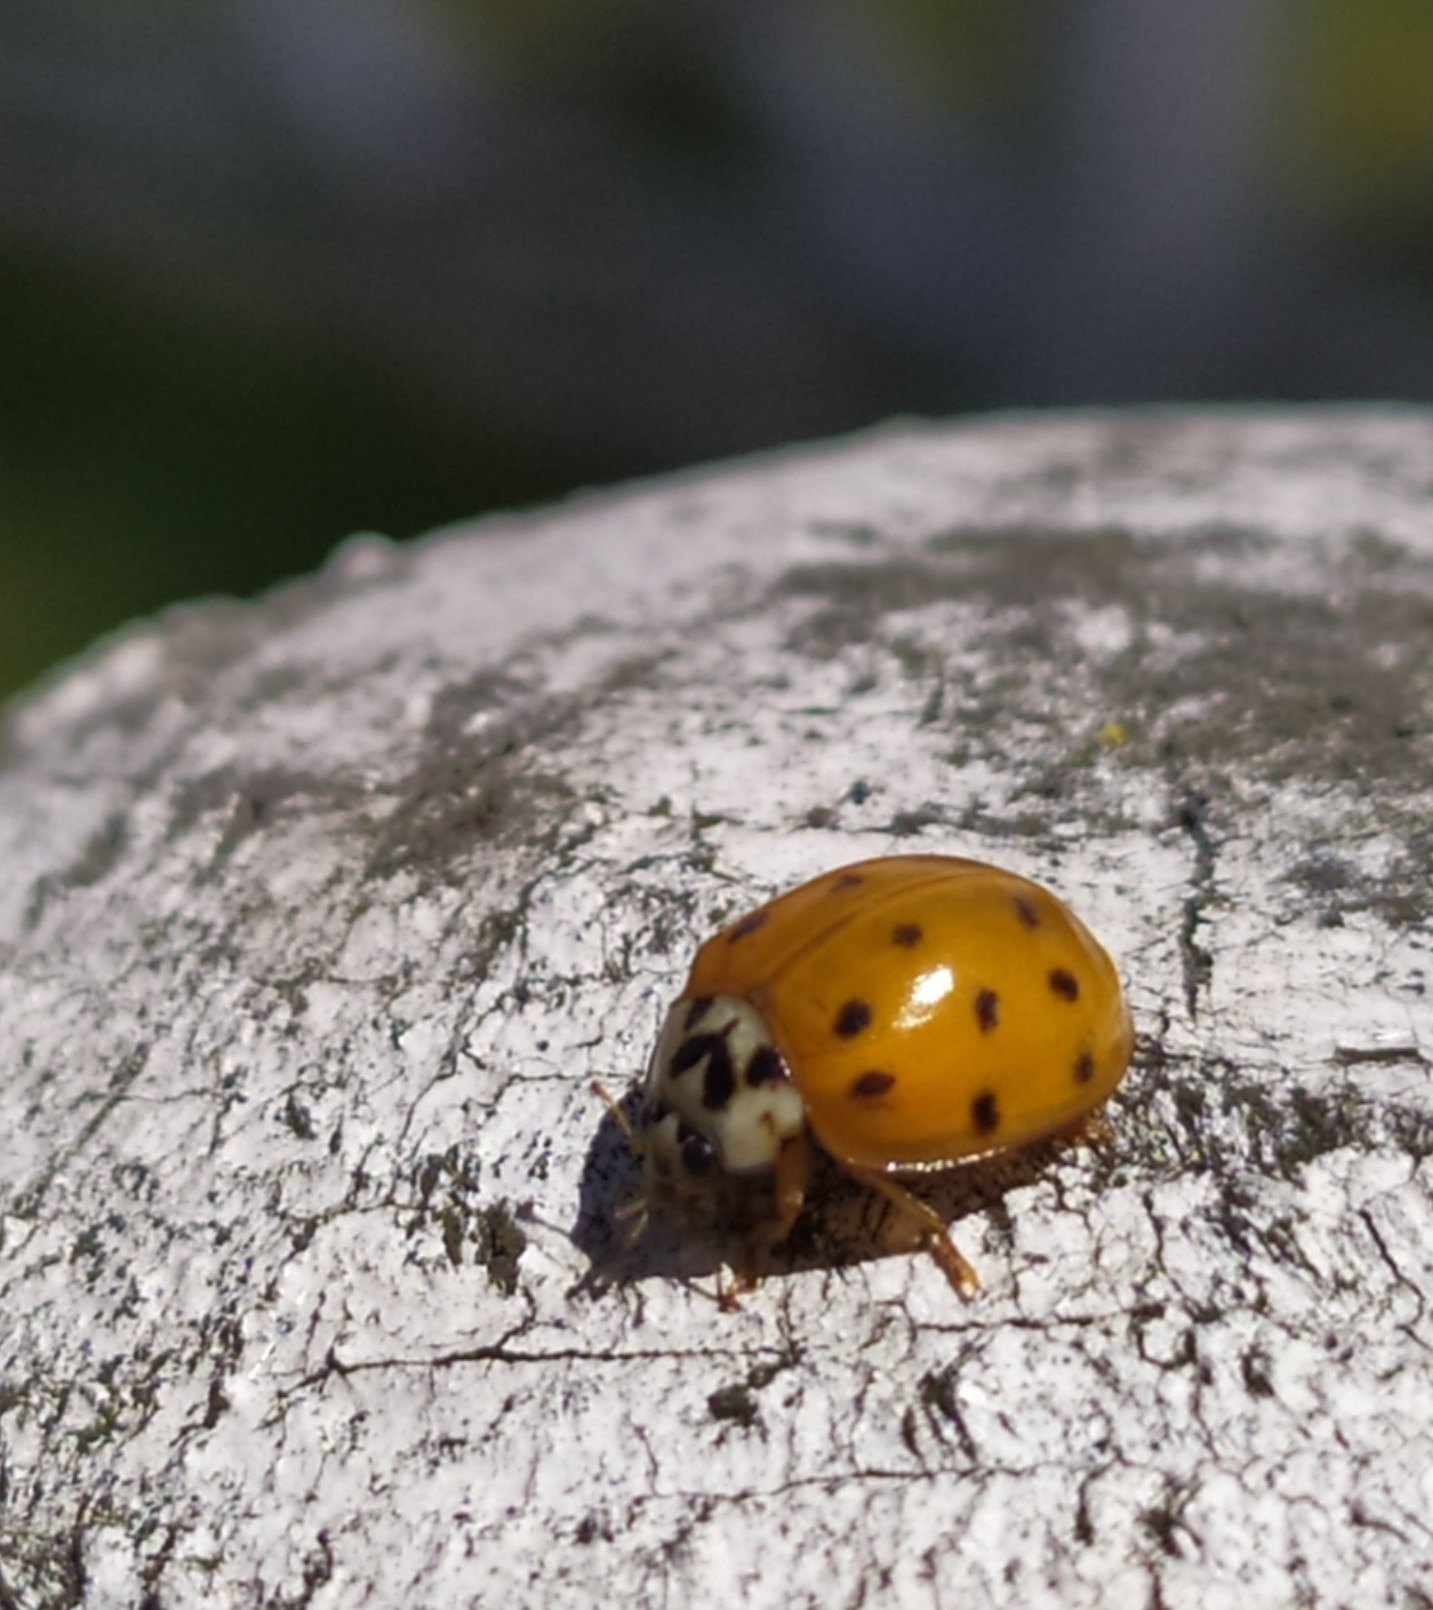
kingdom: Animalia
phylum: Arthropoda
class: Insecta
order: Coleoptera
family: Coccinellidae
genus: Harmonia
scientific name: Harmonia axyridis
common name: Harlequin ladybird
